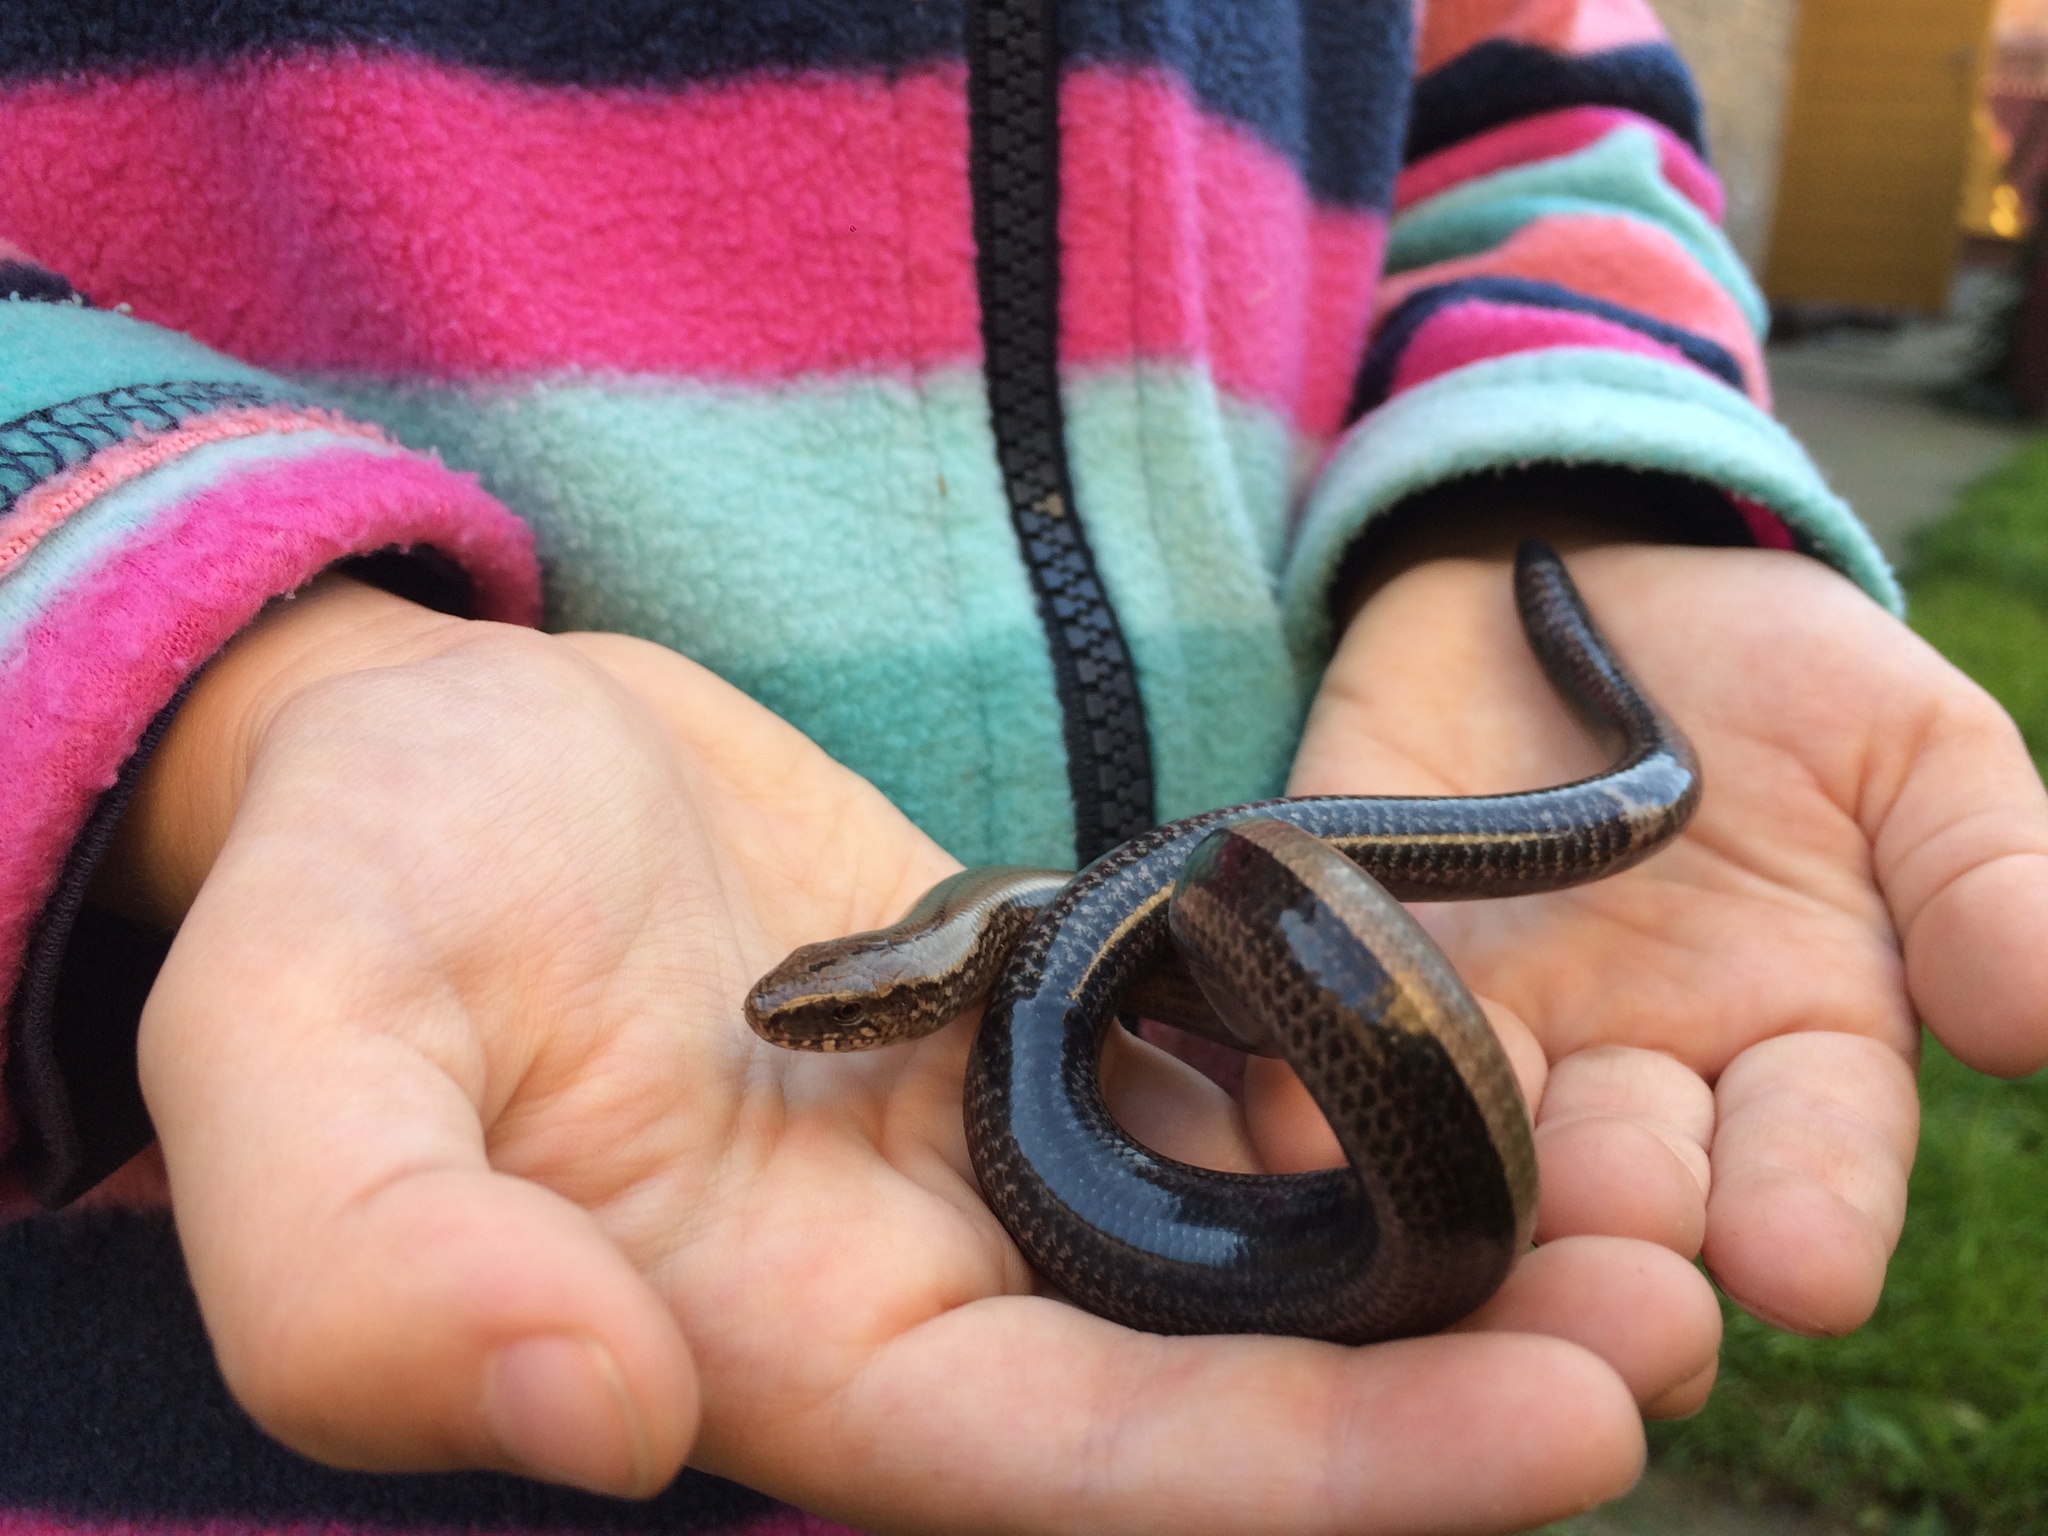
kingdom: Animalia
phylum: Chordata
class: Squamata
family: Anguidae
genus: Anguis
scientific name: Anguis fragilis
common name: Slow worm
